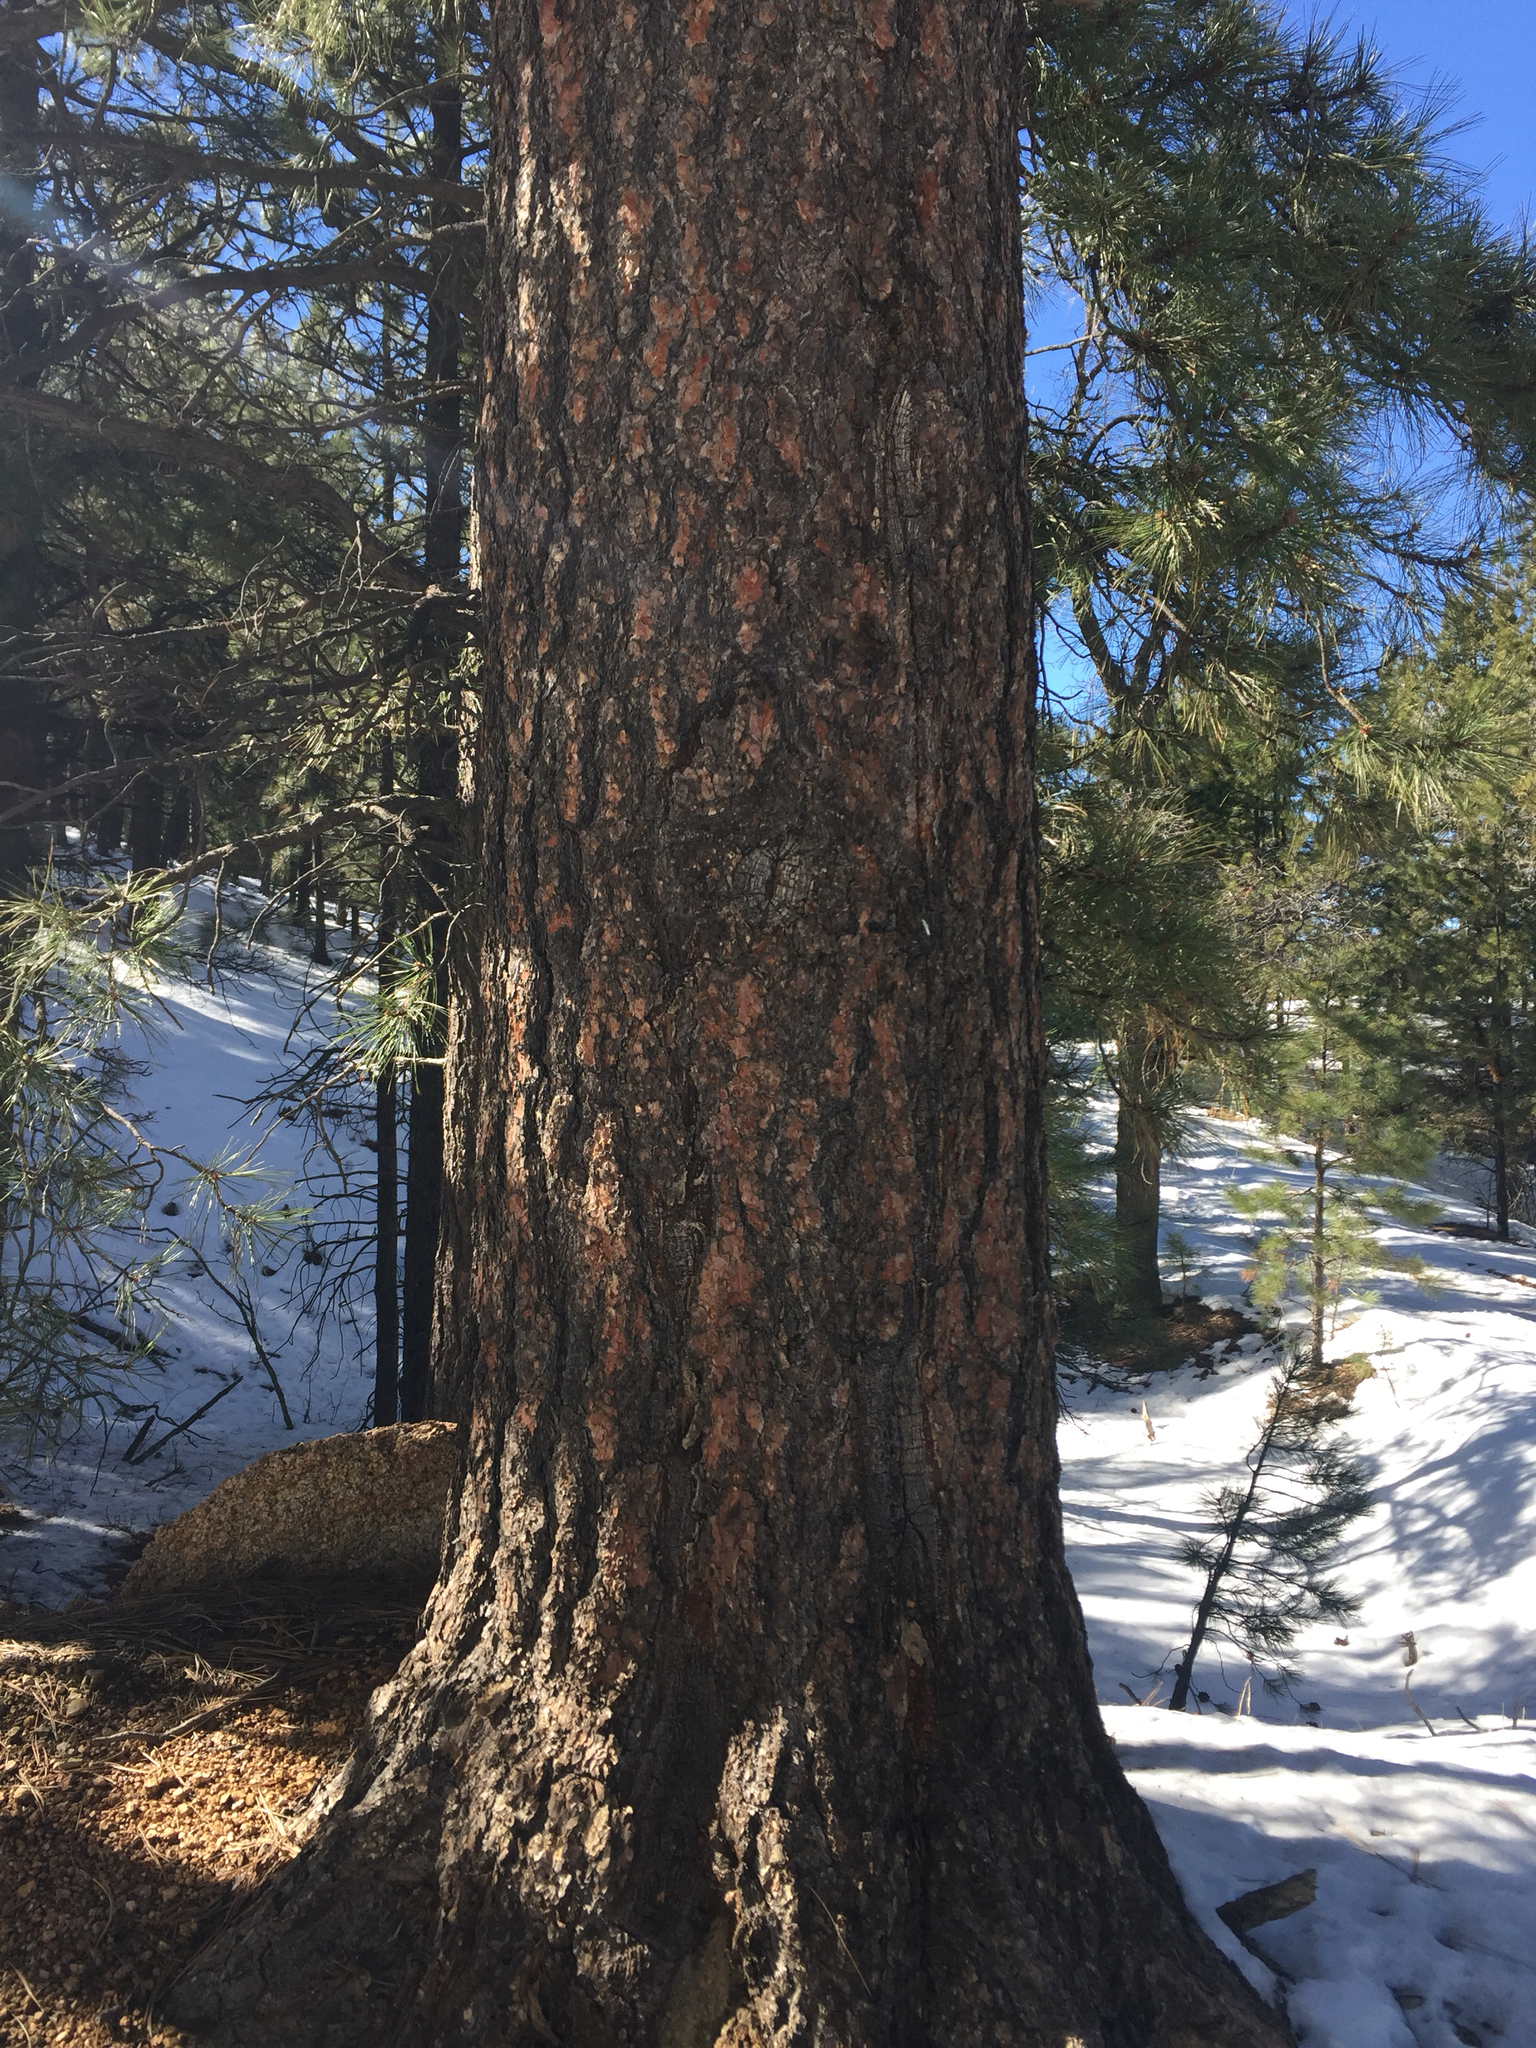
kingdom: Plantae
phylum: Tracheophyta
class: Pinopsida
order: Pinales
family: Pinaceae
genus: Pinus
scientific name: Pinus ponderosa
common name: Western yellow-pine
